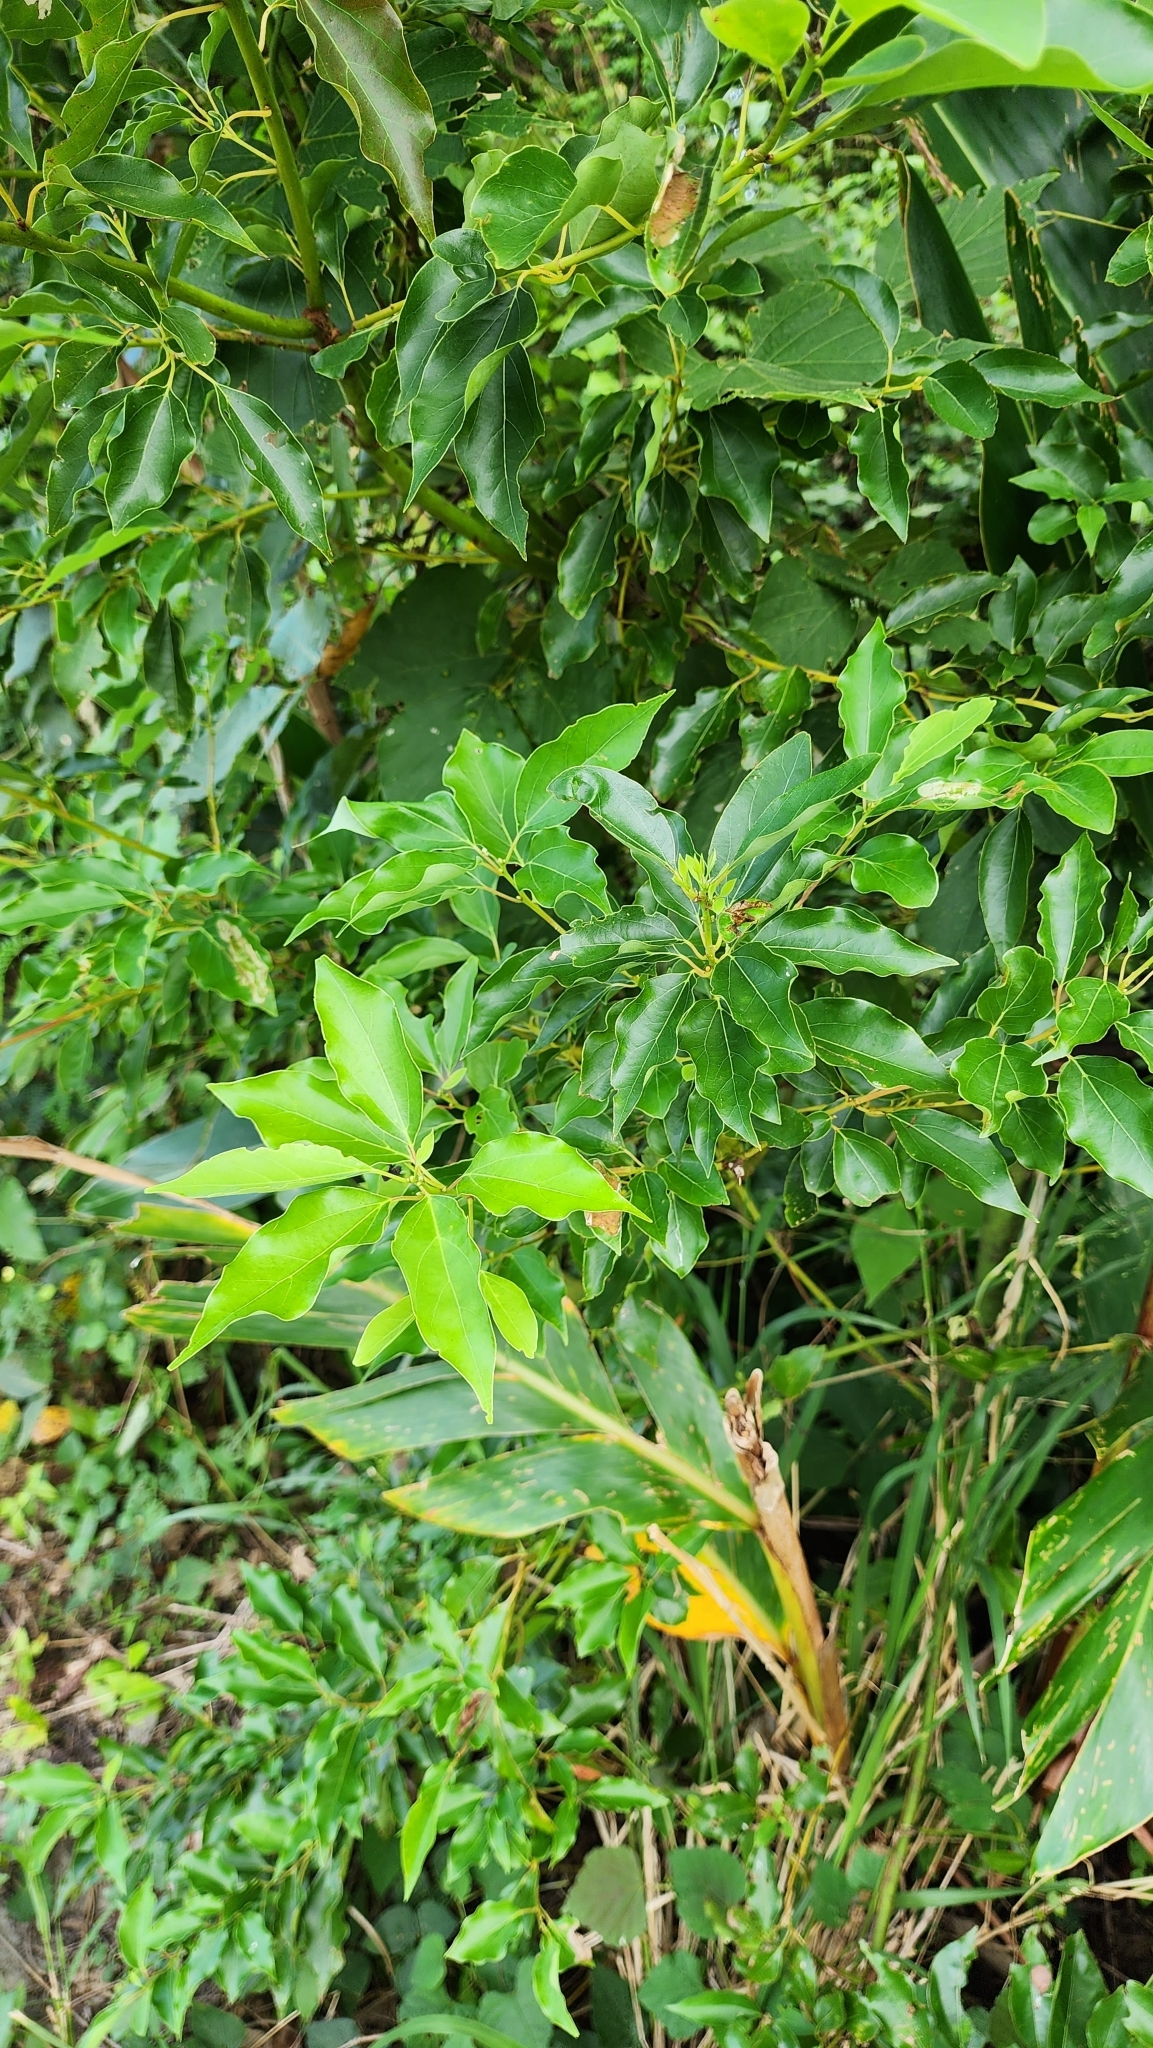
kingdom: Plantae
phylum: Tracheophyta
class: Magnoliopsida
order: Laurales
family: Lauraceae
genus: Cinnamomum
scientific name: Cinnamomum camphora
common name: Camphortree
